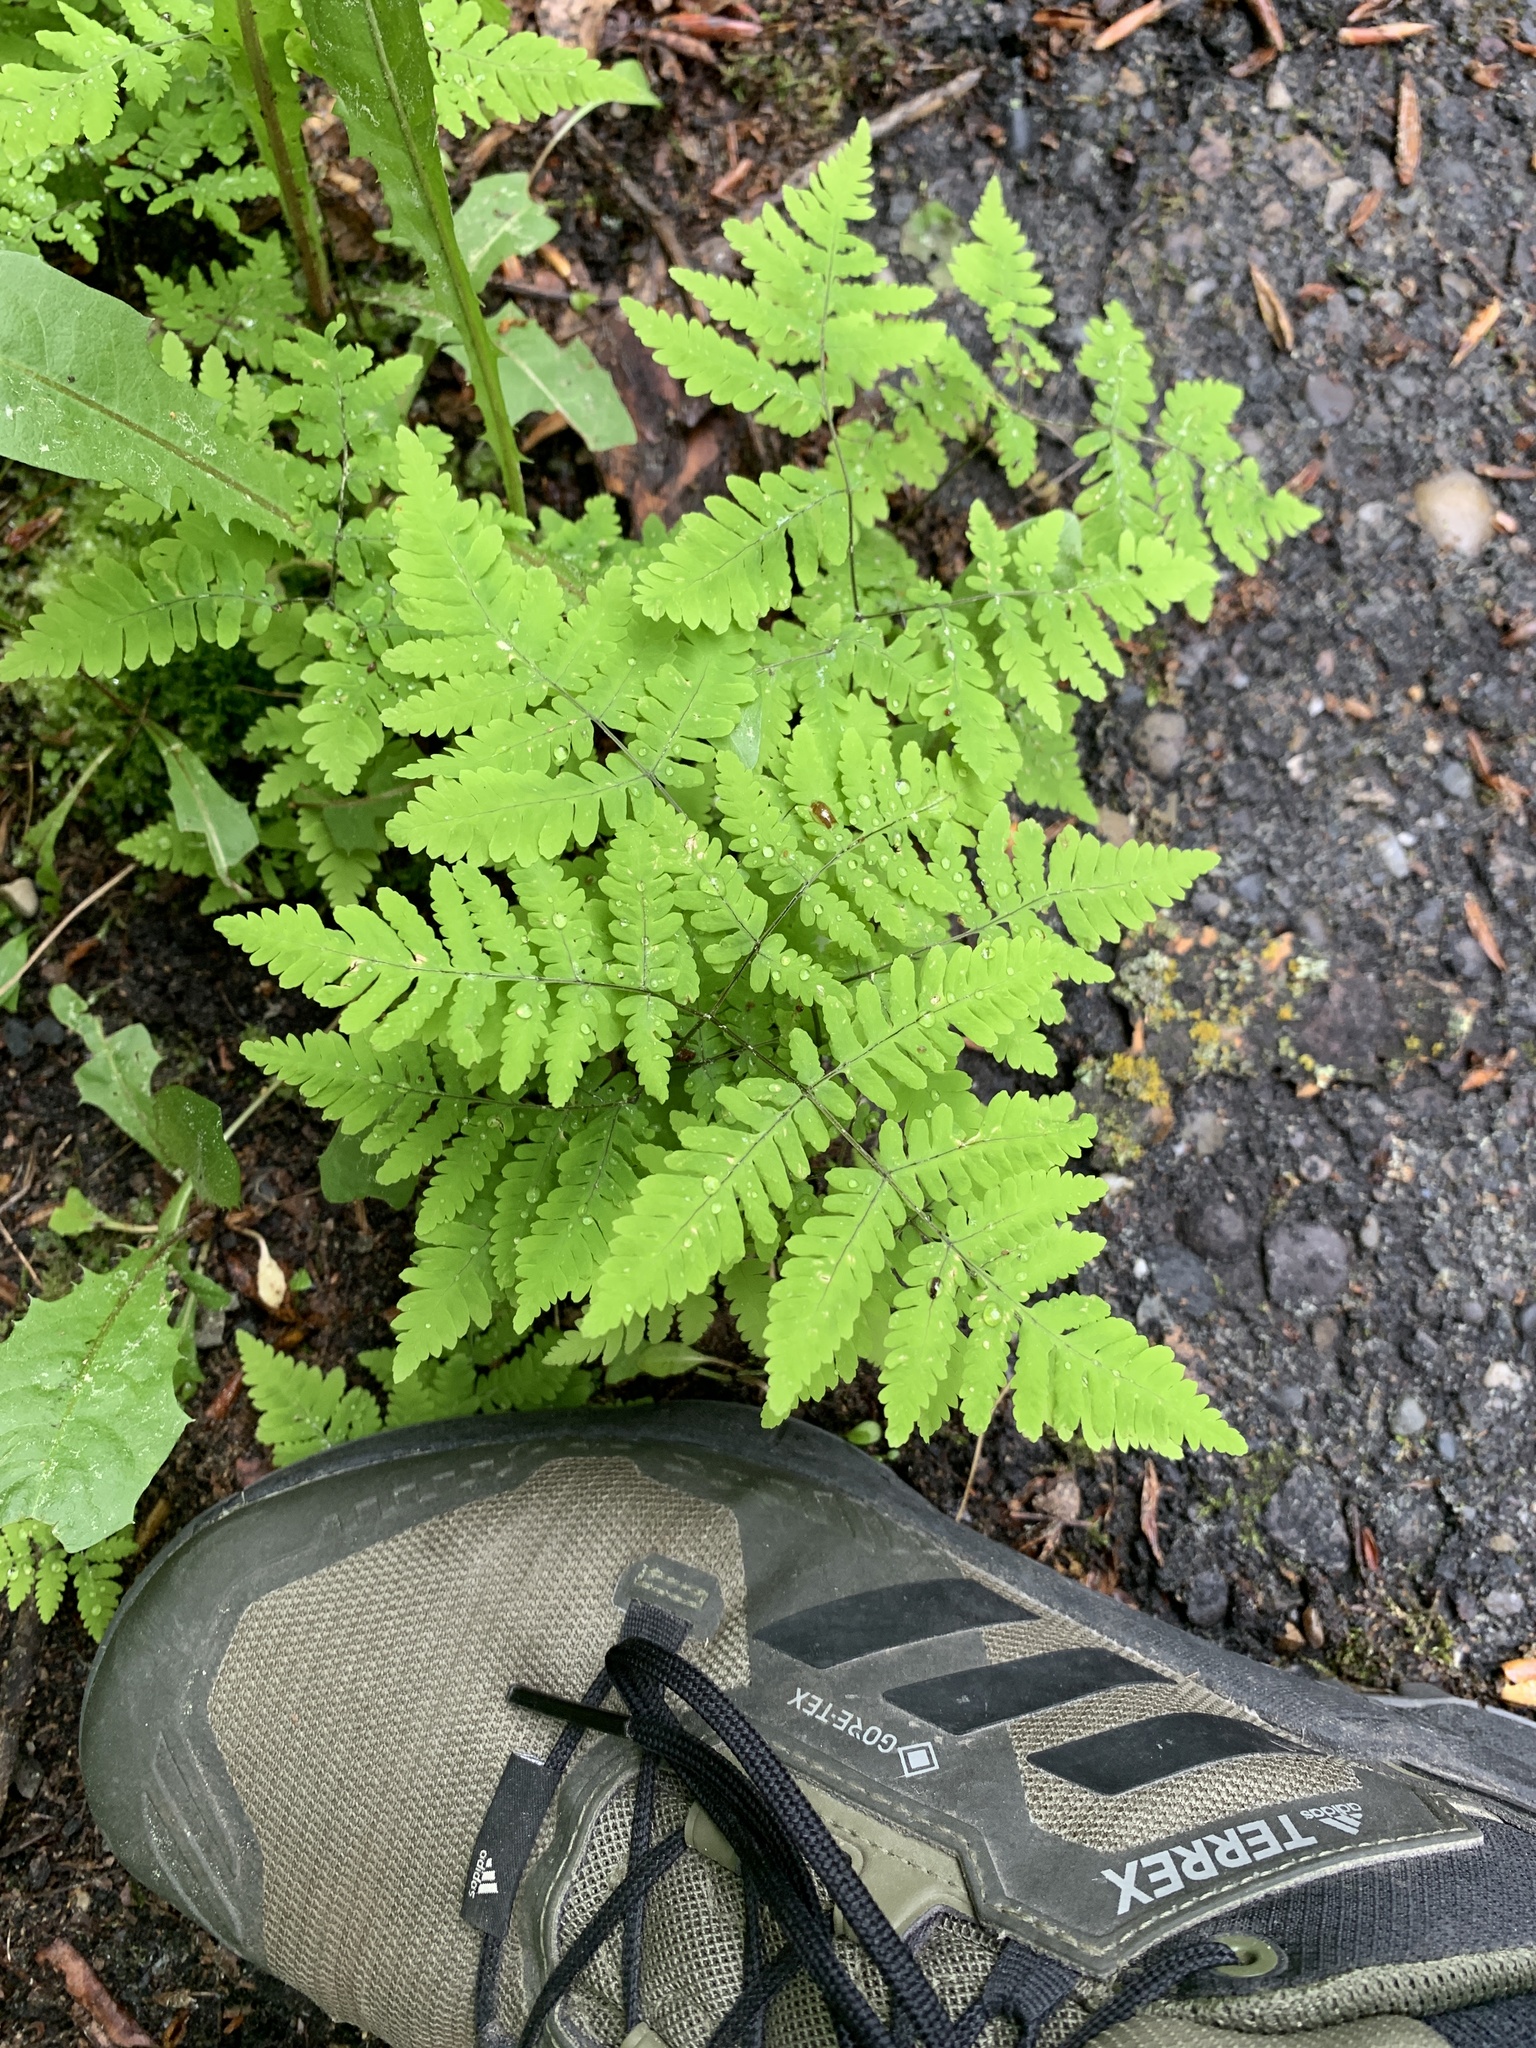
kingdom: Plantae
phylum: Tracheophyta
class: Polypodiopsida
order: Polypodiales
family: Cystopteridaceae
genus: Gymnocarpium
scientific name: Gymnocarpium dryopteris
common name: Oak fern
